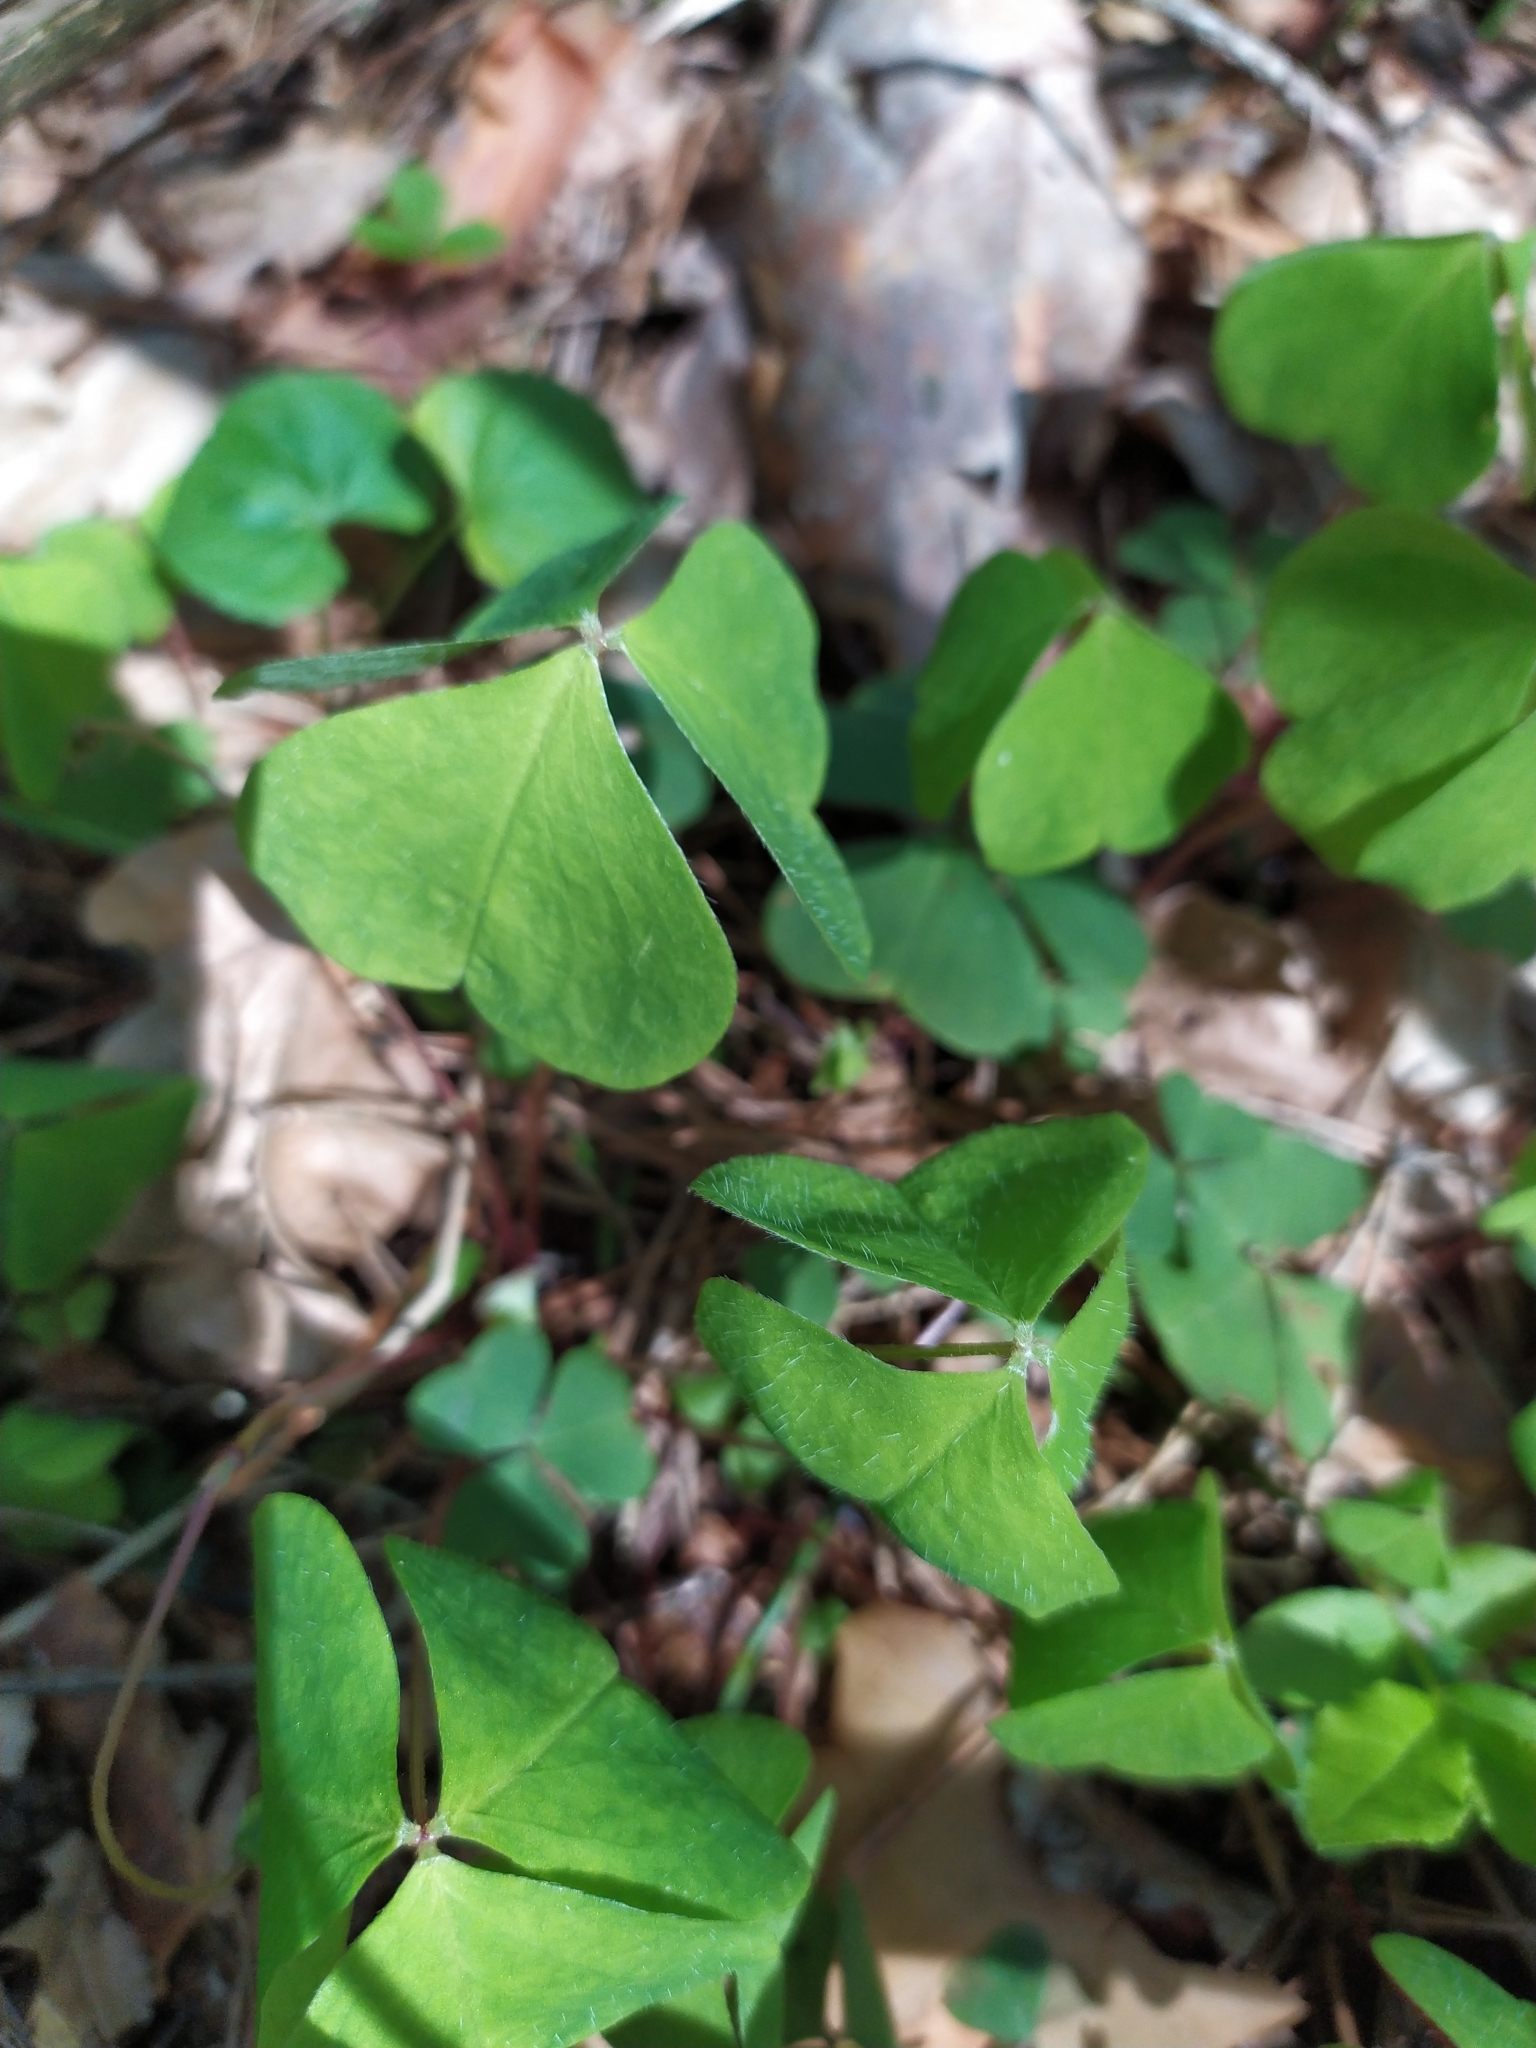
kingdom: Plantae
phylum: Tracheophyta
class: Magnoliopsida
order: Oxalidales
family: Oxalidaceae
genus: Oxalis
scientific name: Oxalis acetosella
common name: Wood-sorrel
